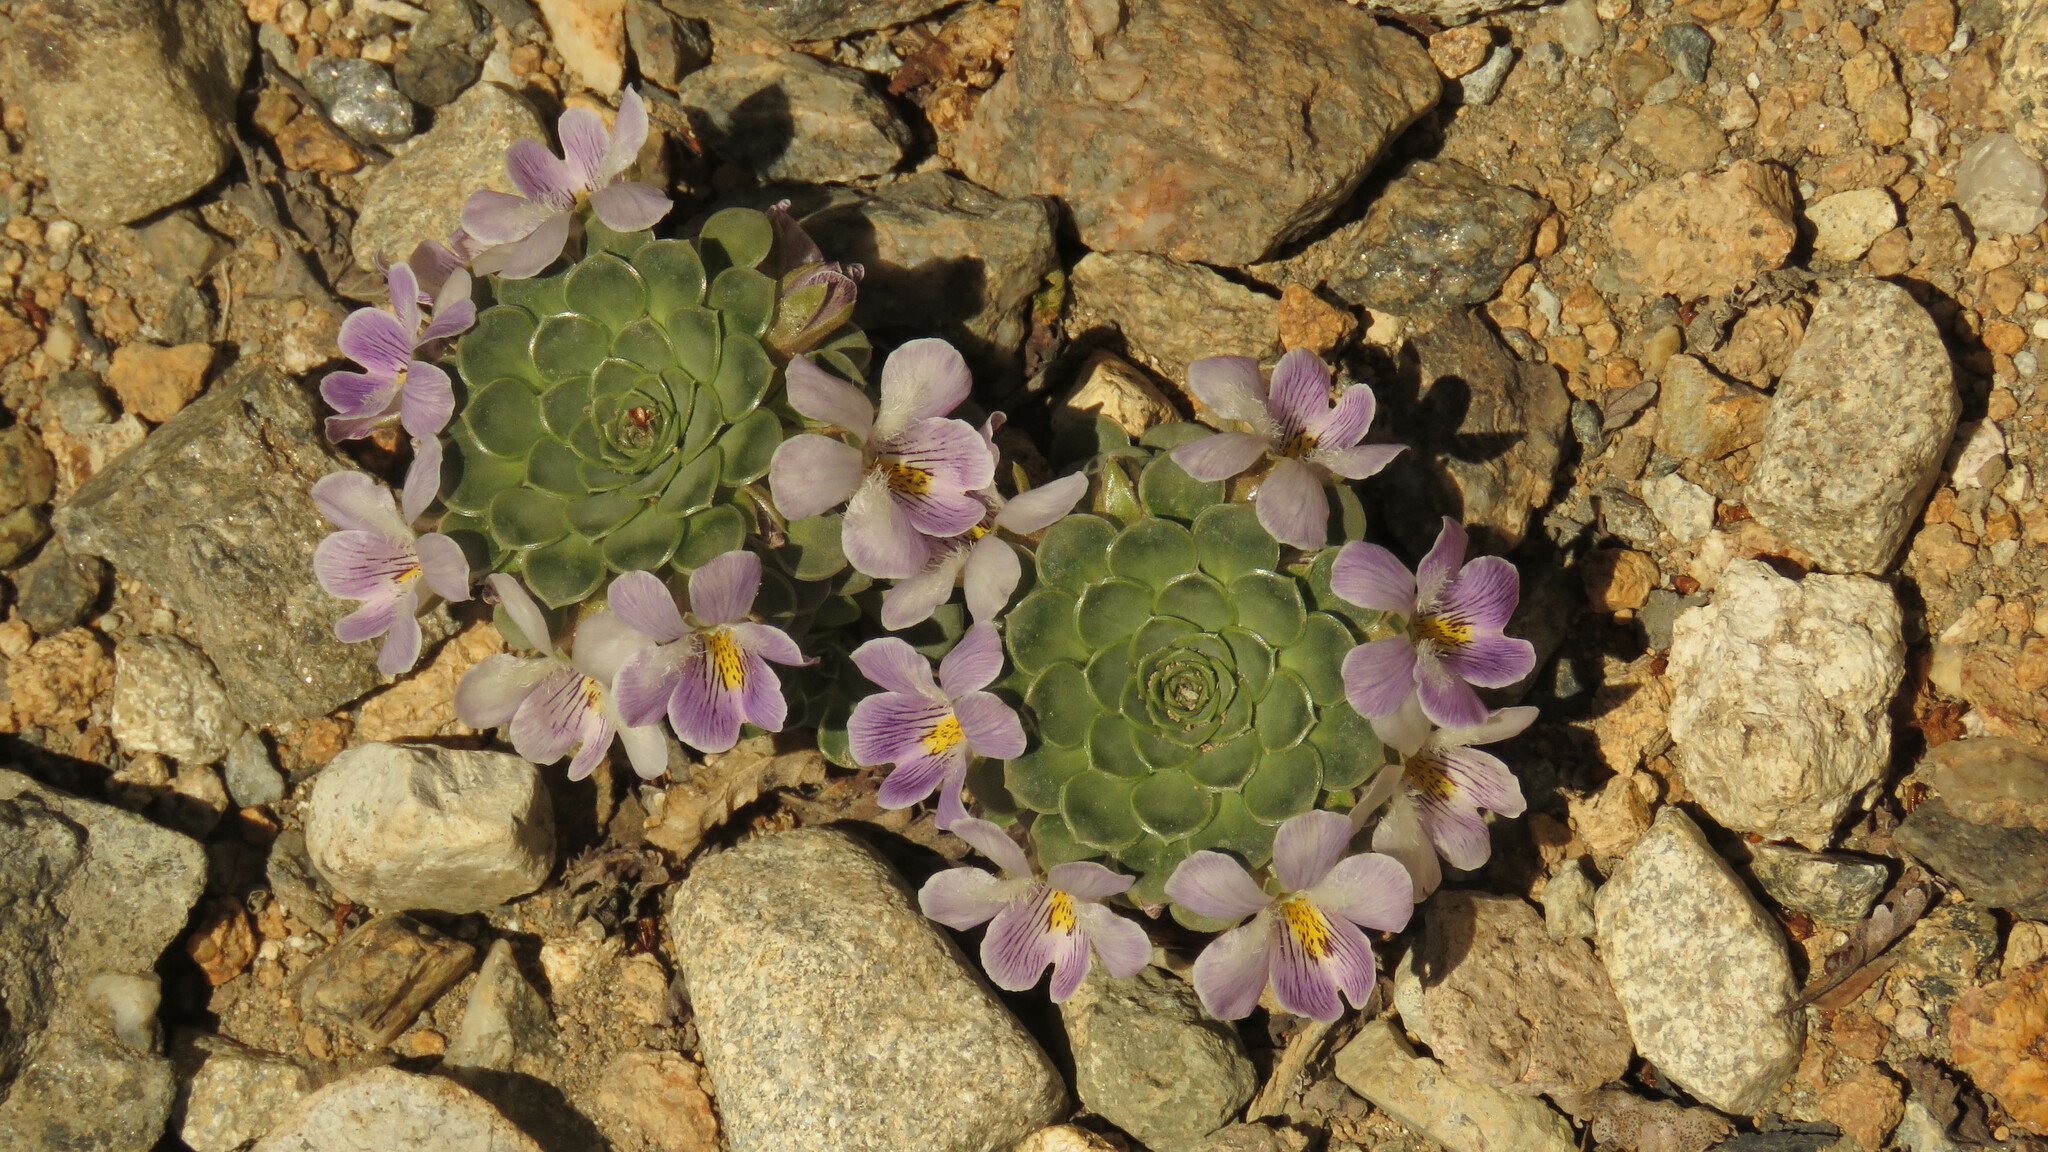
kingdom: Plantae
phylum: Tracheophyta
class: Magnoliopsida
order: Malpighiales
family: Violaceae
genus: Viola
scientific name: Viola petraea
